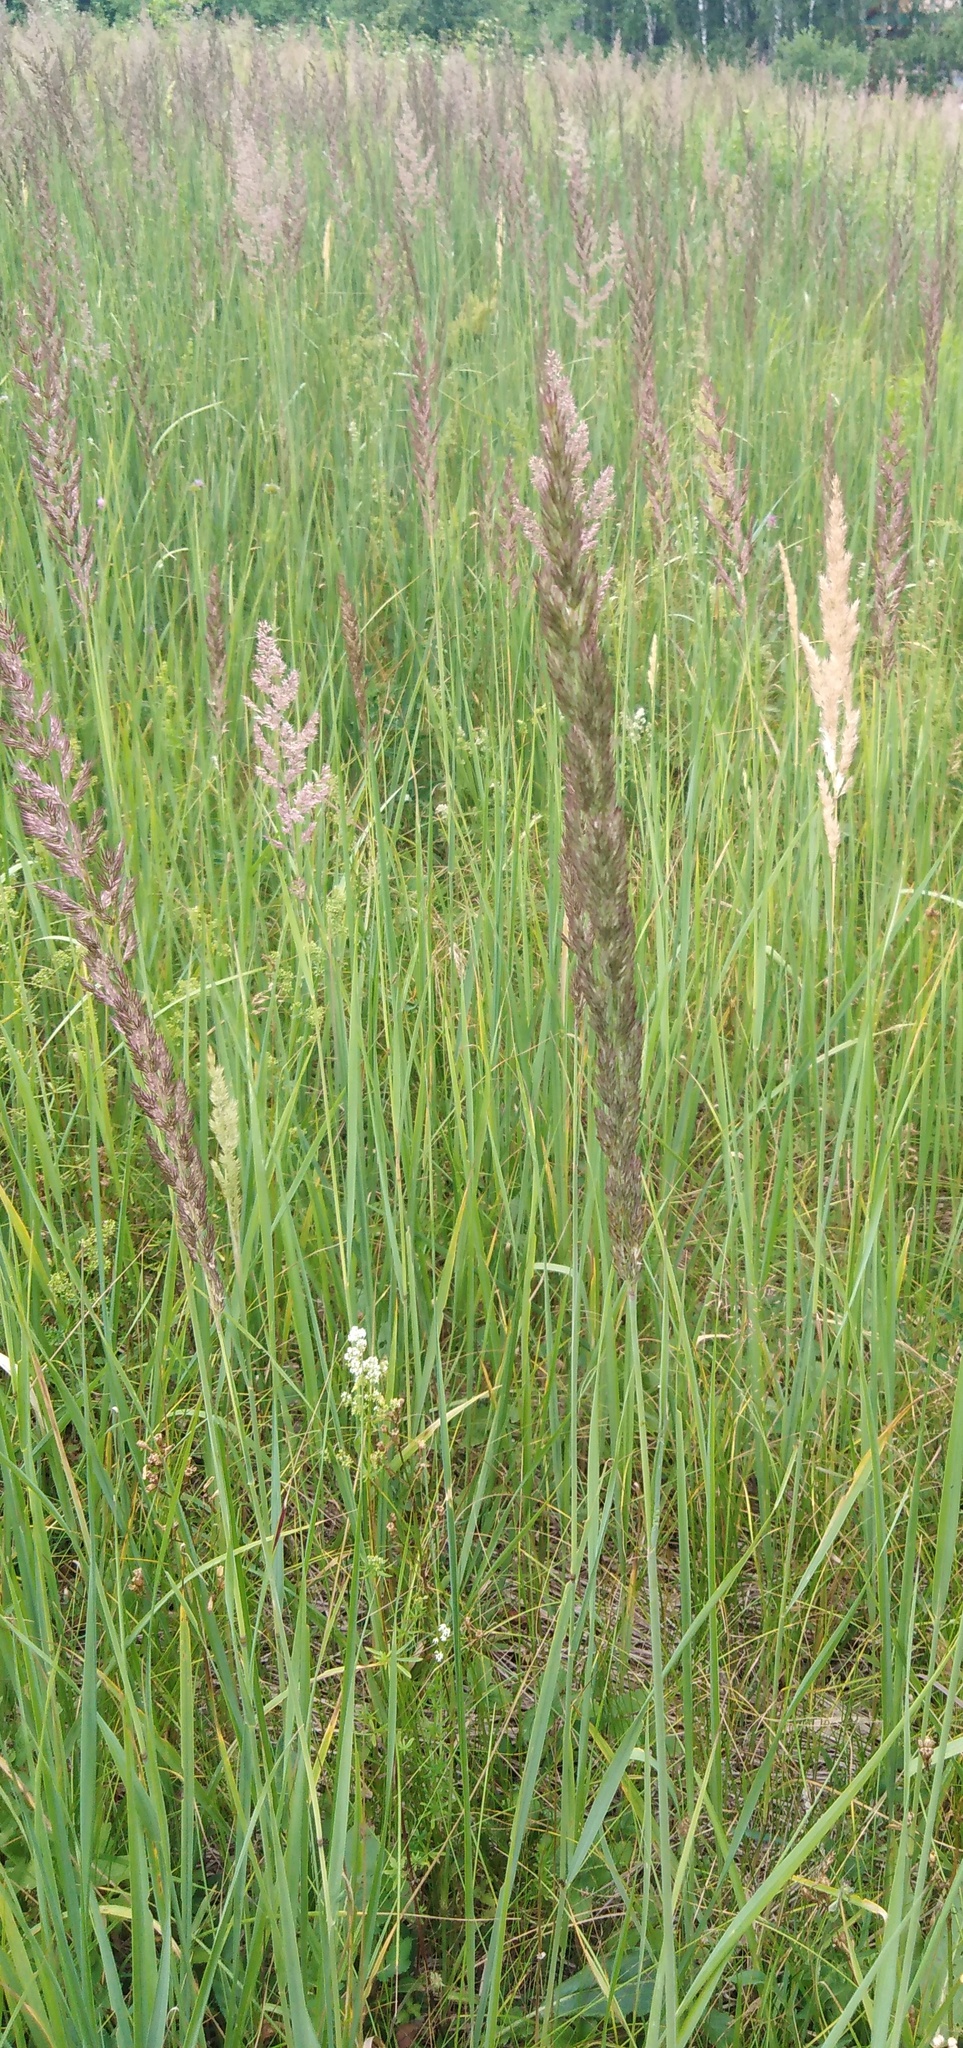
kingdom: Plantae
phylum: Tracheophyta
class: Liliopsida
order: Poales
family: Poaceae
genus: Calamagrostis
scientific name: Calamagrostis epigejos
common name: Wood small-reed
